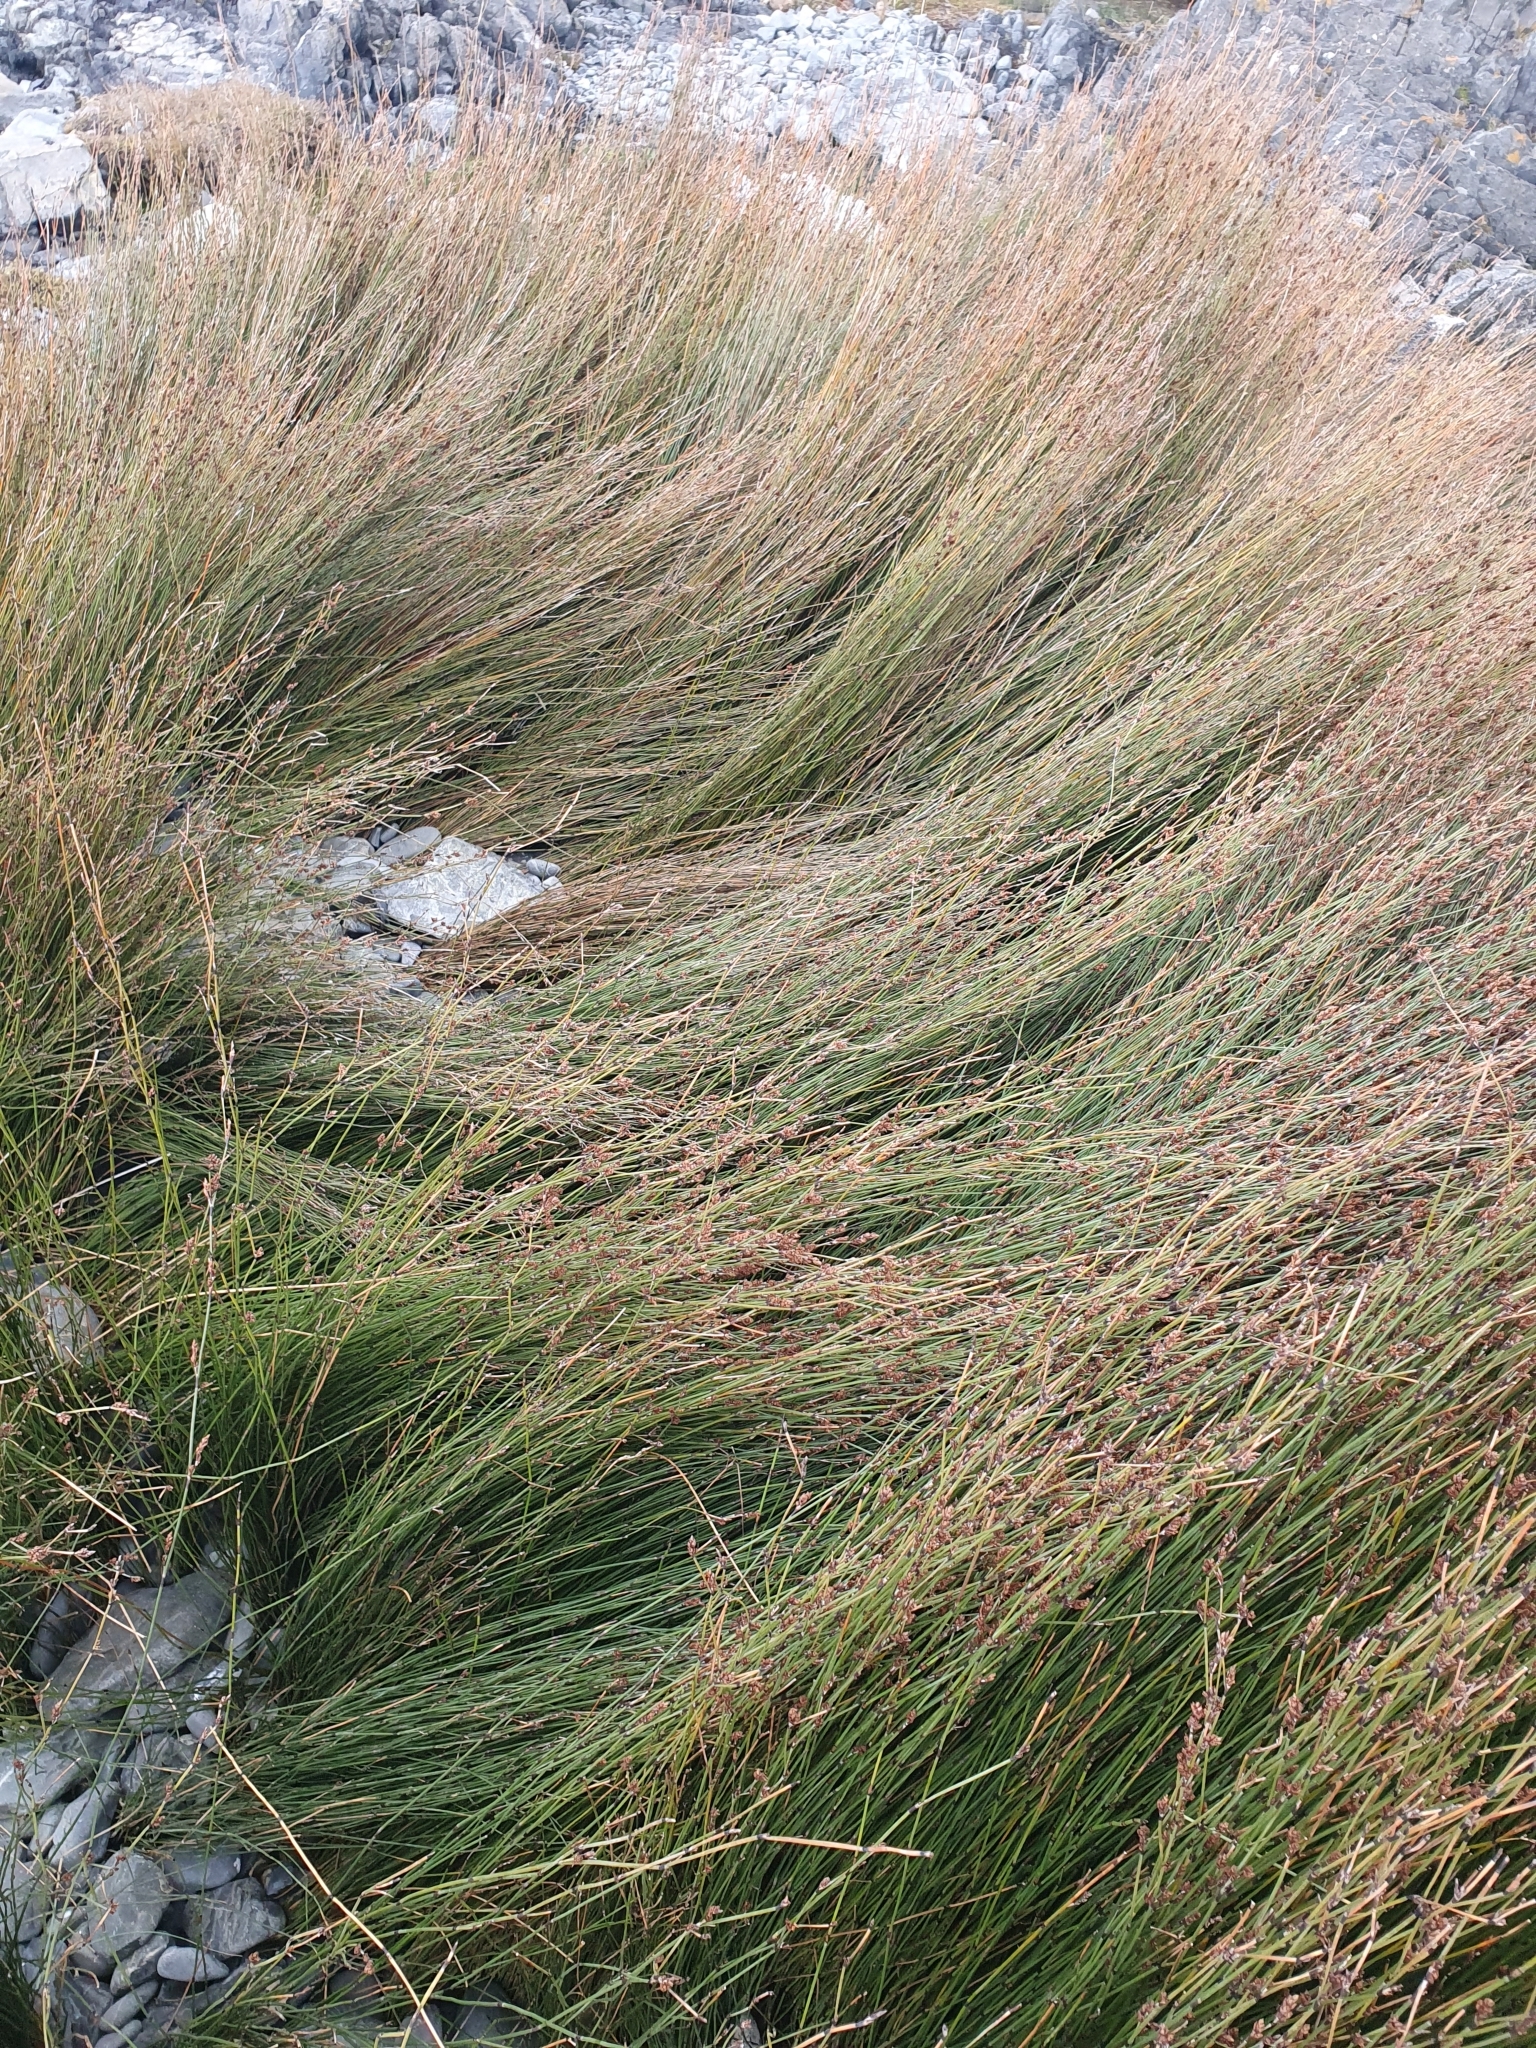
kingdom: Plantae
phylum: Tracheophyta
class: Liliopsida
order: Poales
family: Restionaceae
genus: Apodasmia
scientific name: Apodasmia similis
